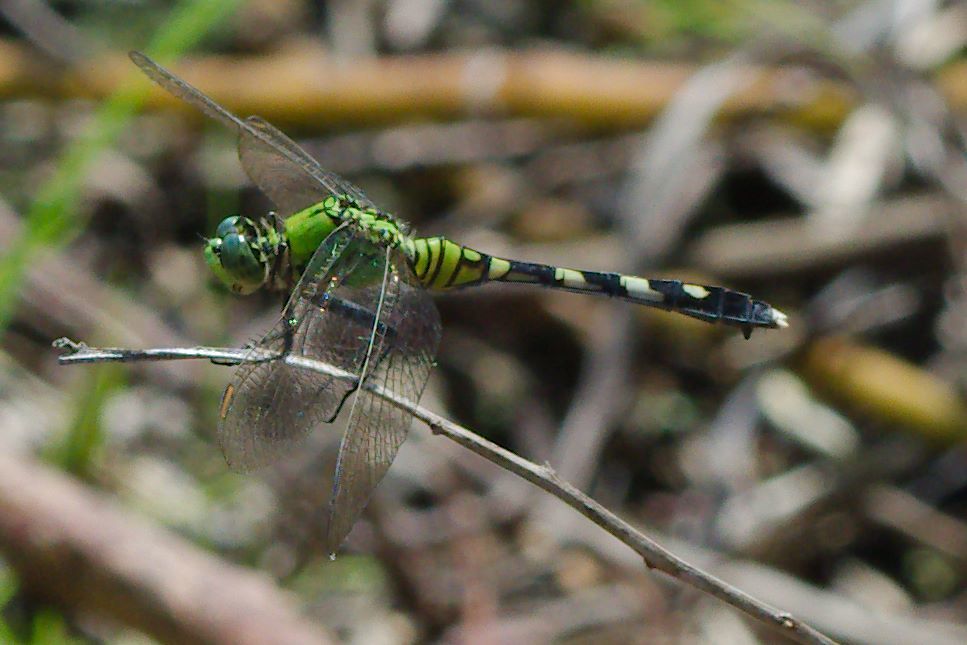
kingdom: Animalia
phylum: Arthropoda
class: Insecta
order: Odonata
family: Libellulidae
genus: Erythemis
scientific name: Erythemis simplicicollis
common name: Eastern pondhawk
